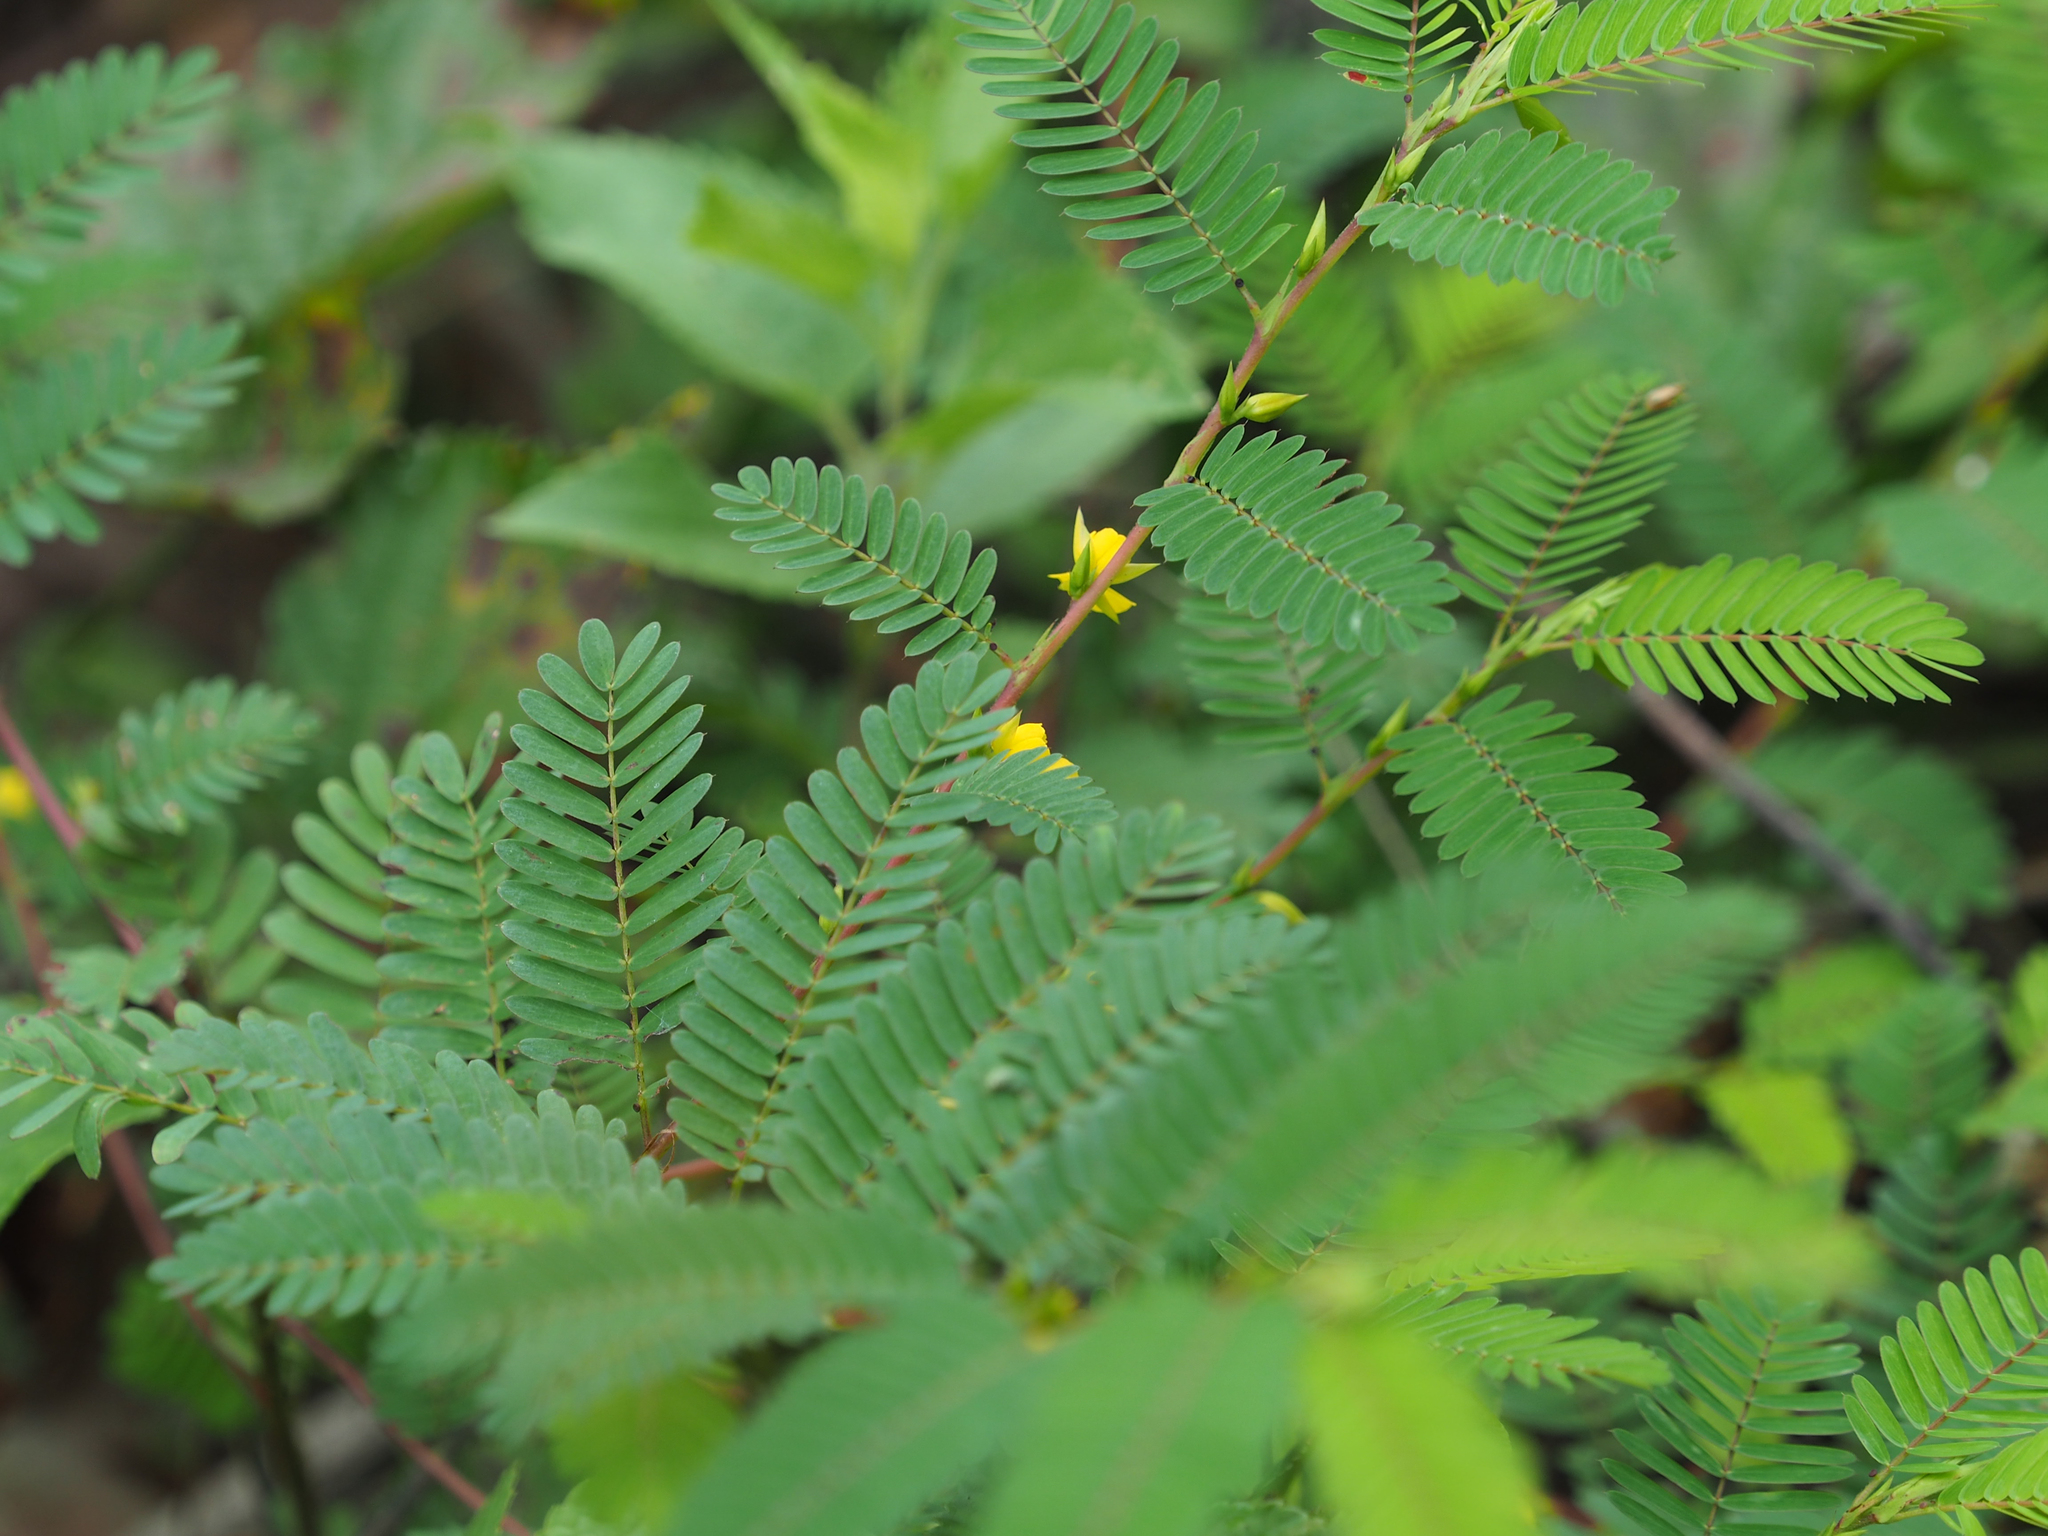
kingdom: Plantae
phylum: Tracheophyta
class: Magnoliopsida
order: Fabales
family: Fabaceae
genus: Chamaecrista
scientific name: Chamaecrista nictitans
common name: Sensitive cassia
